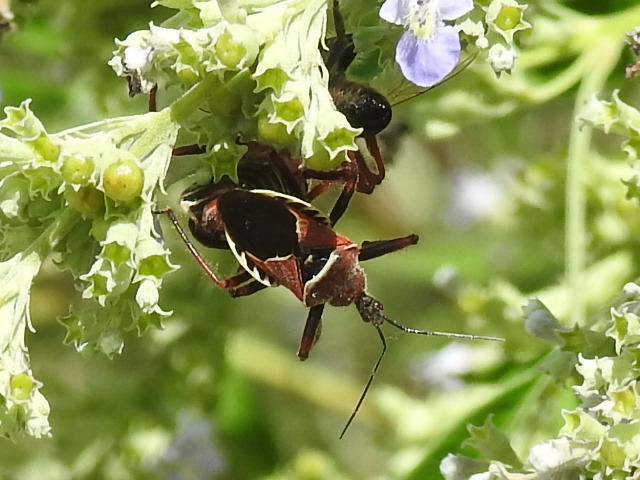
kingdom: Animalia
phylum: Arthropoda
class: Insecta
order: Hemiptera
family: Reduviidae
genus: Apiomerus
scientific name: Apiomerus spissipes
